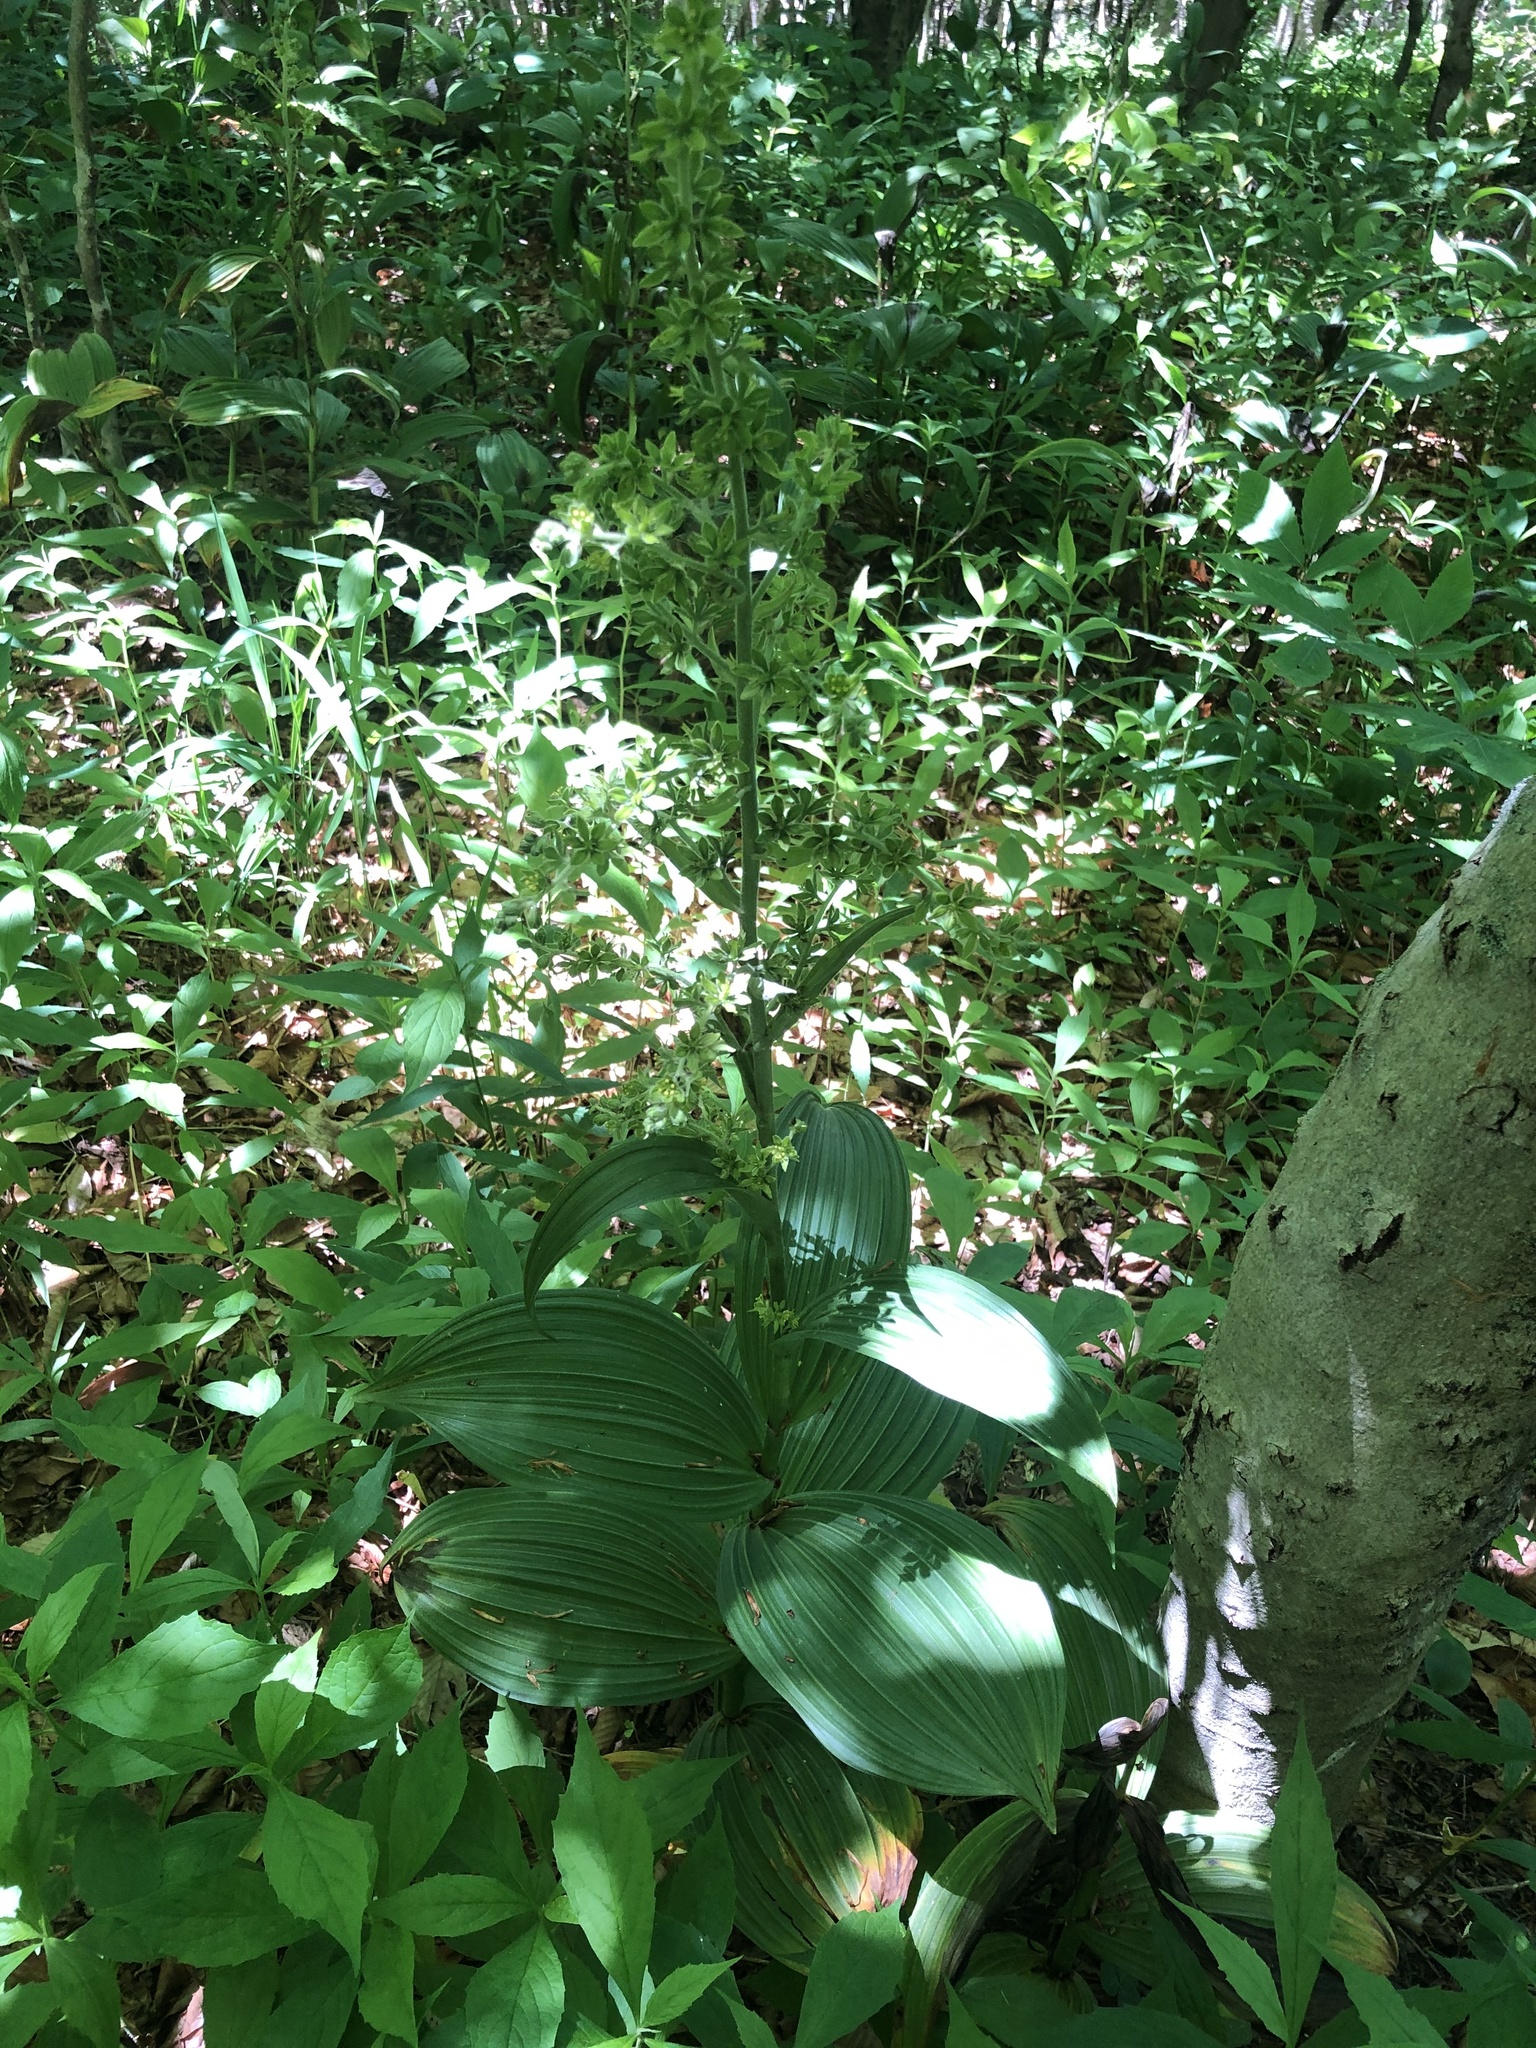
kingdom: Plantae
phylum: Tracheophyta
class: Liliopsida
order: Liliales
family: Melanthiaceae
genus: Veratrum
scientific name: Veratrum viride
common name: American false hellebore
